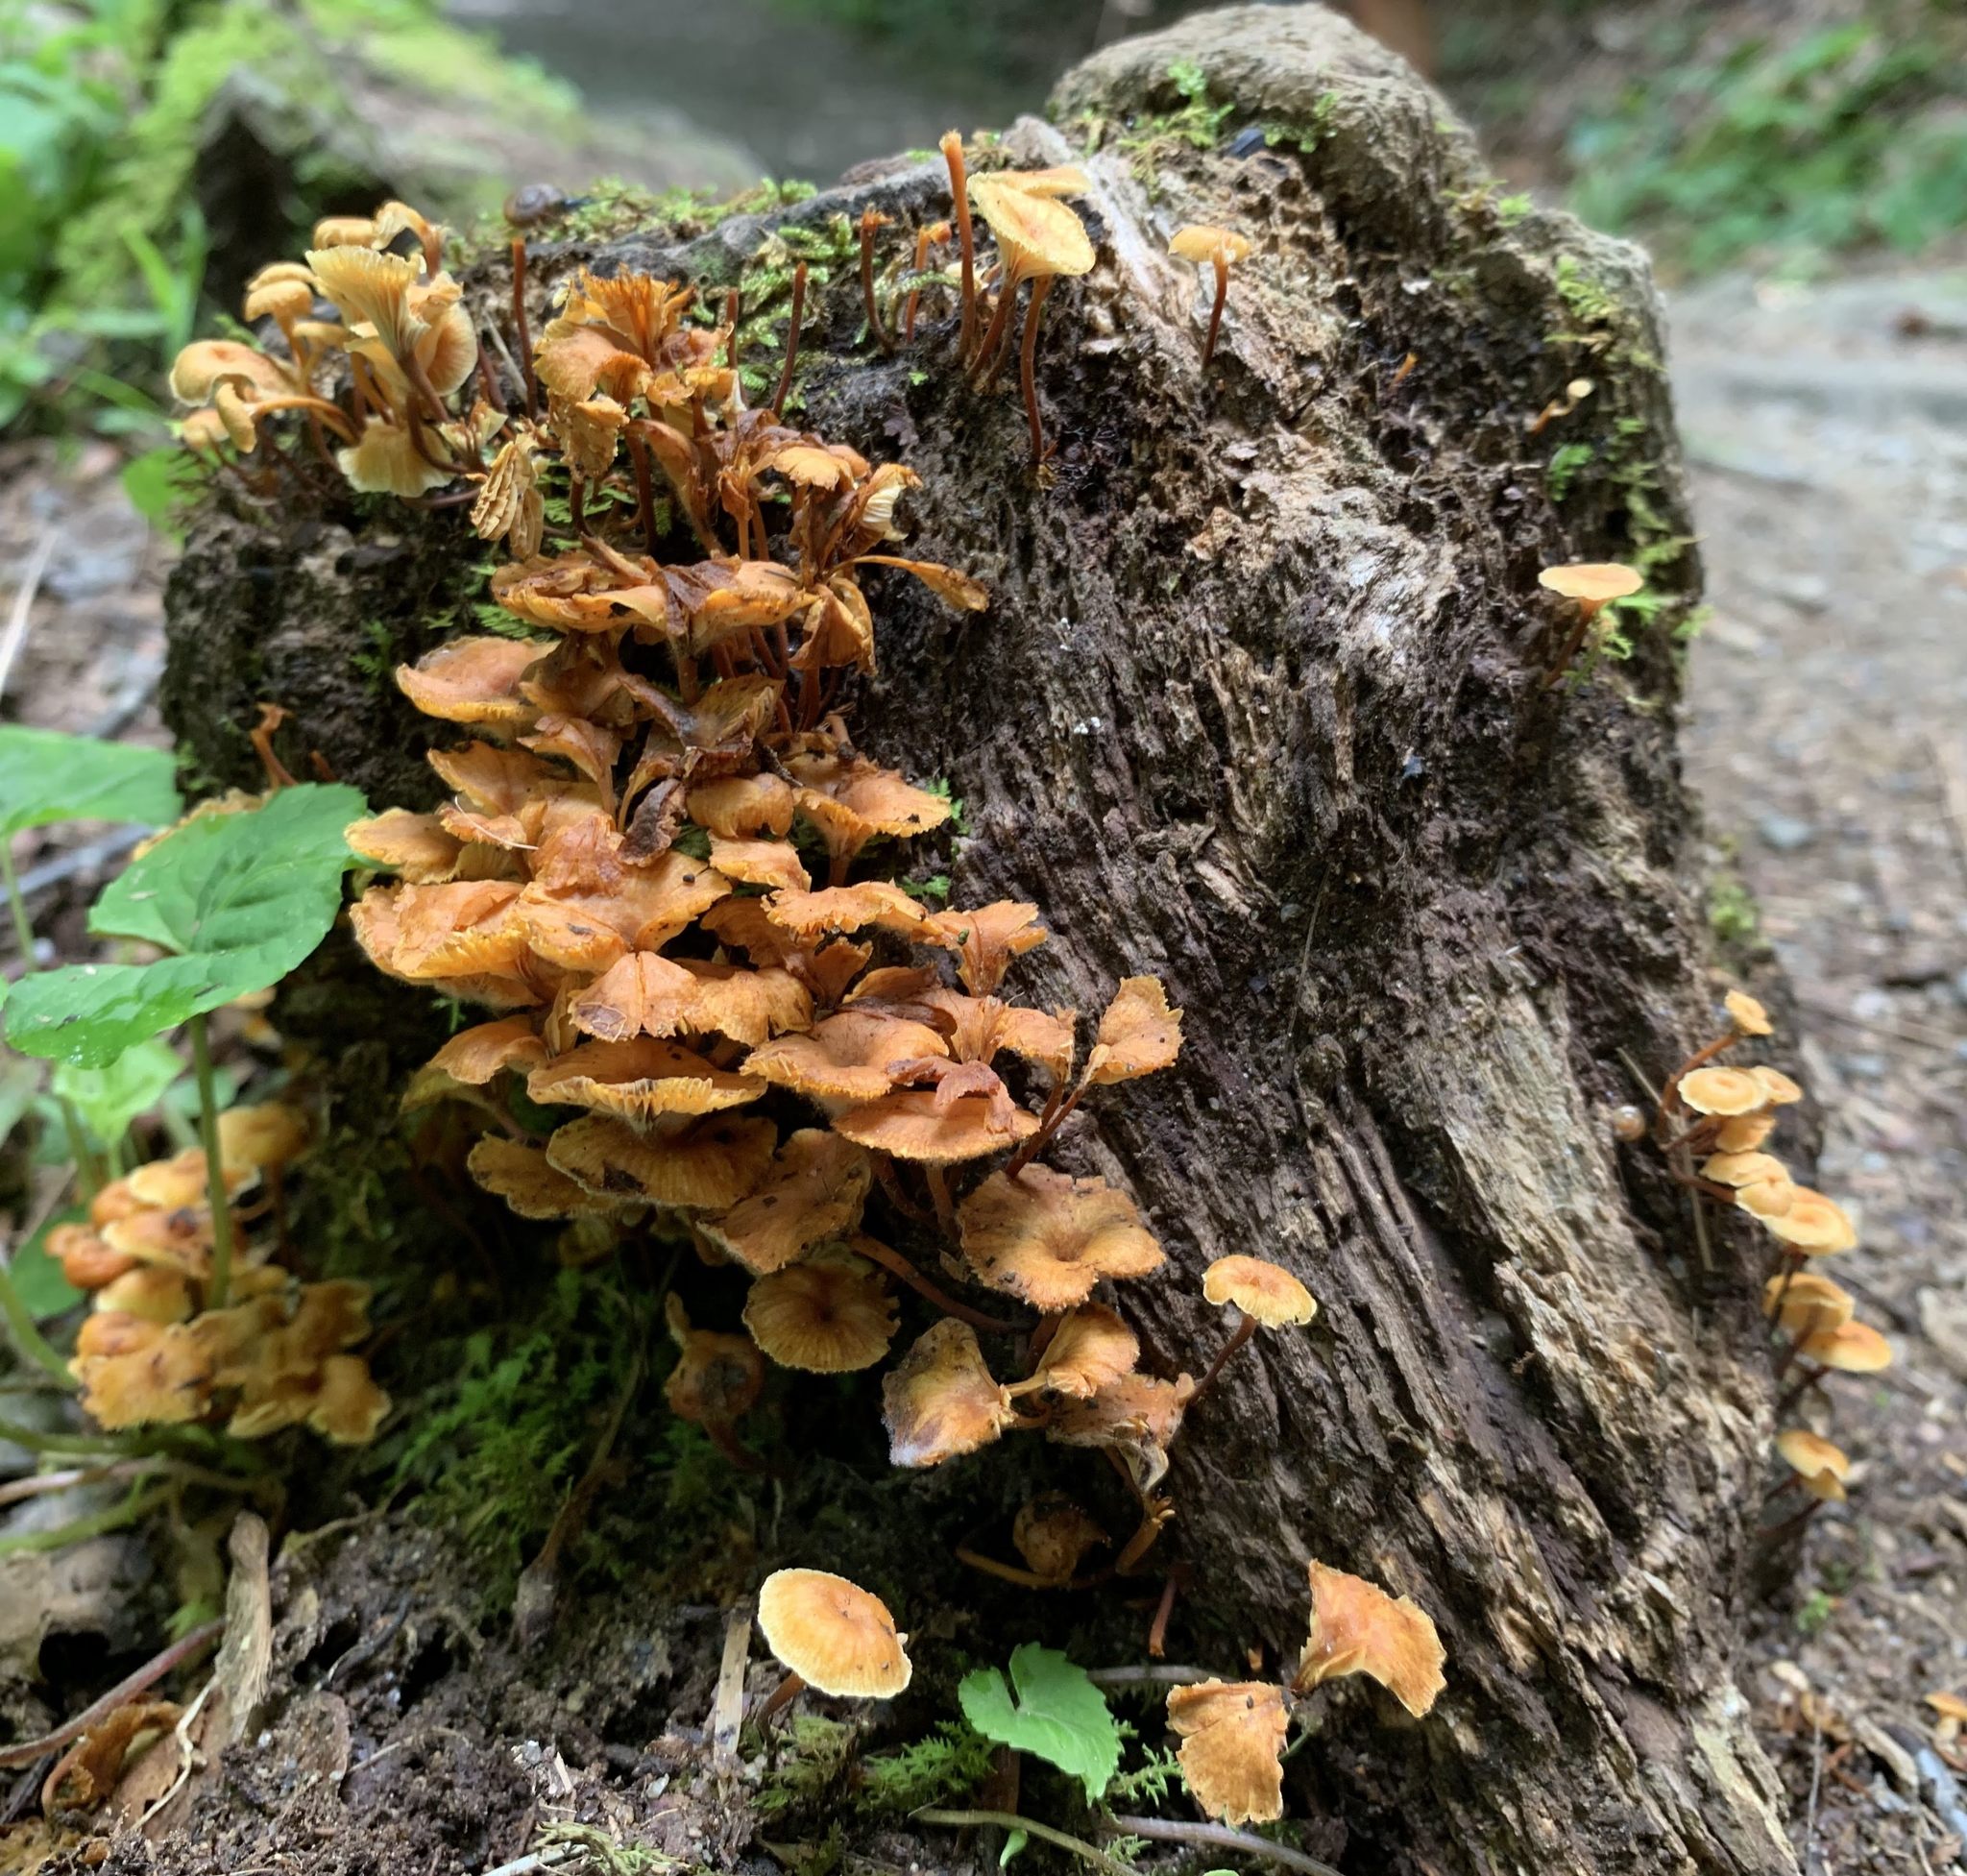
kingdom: Fungi
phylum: Basidiomycota
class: Agaricomycetes
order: Agaricales
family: Mycenaceae
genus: Xeromphalina
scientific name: Xeromphalina campanella
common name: Pinewood gingertail
